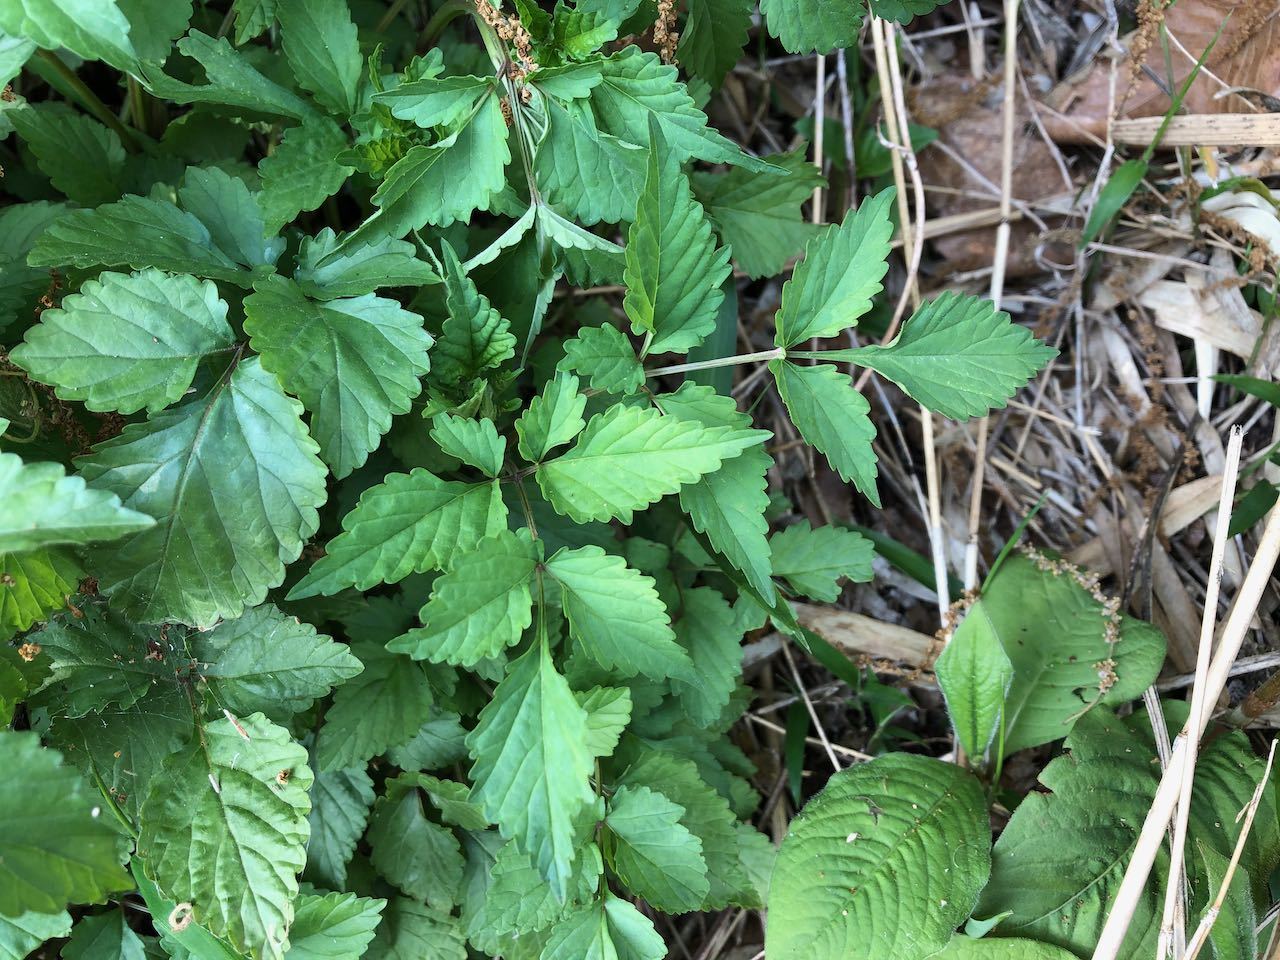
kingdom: Plantae
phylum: Tracheophyta
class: Magnoliopsida
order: Lamiales
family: Lamiaceae
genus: Salvia
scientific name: Salvia japonica
